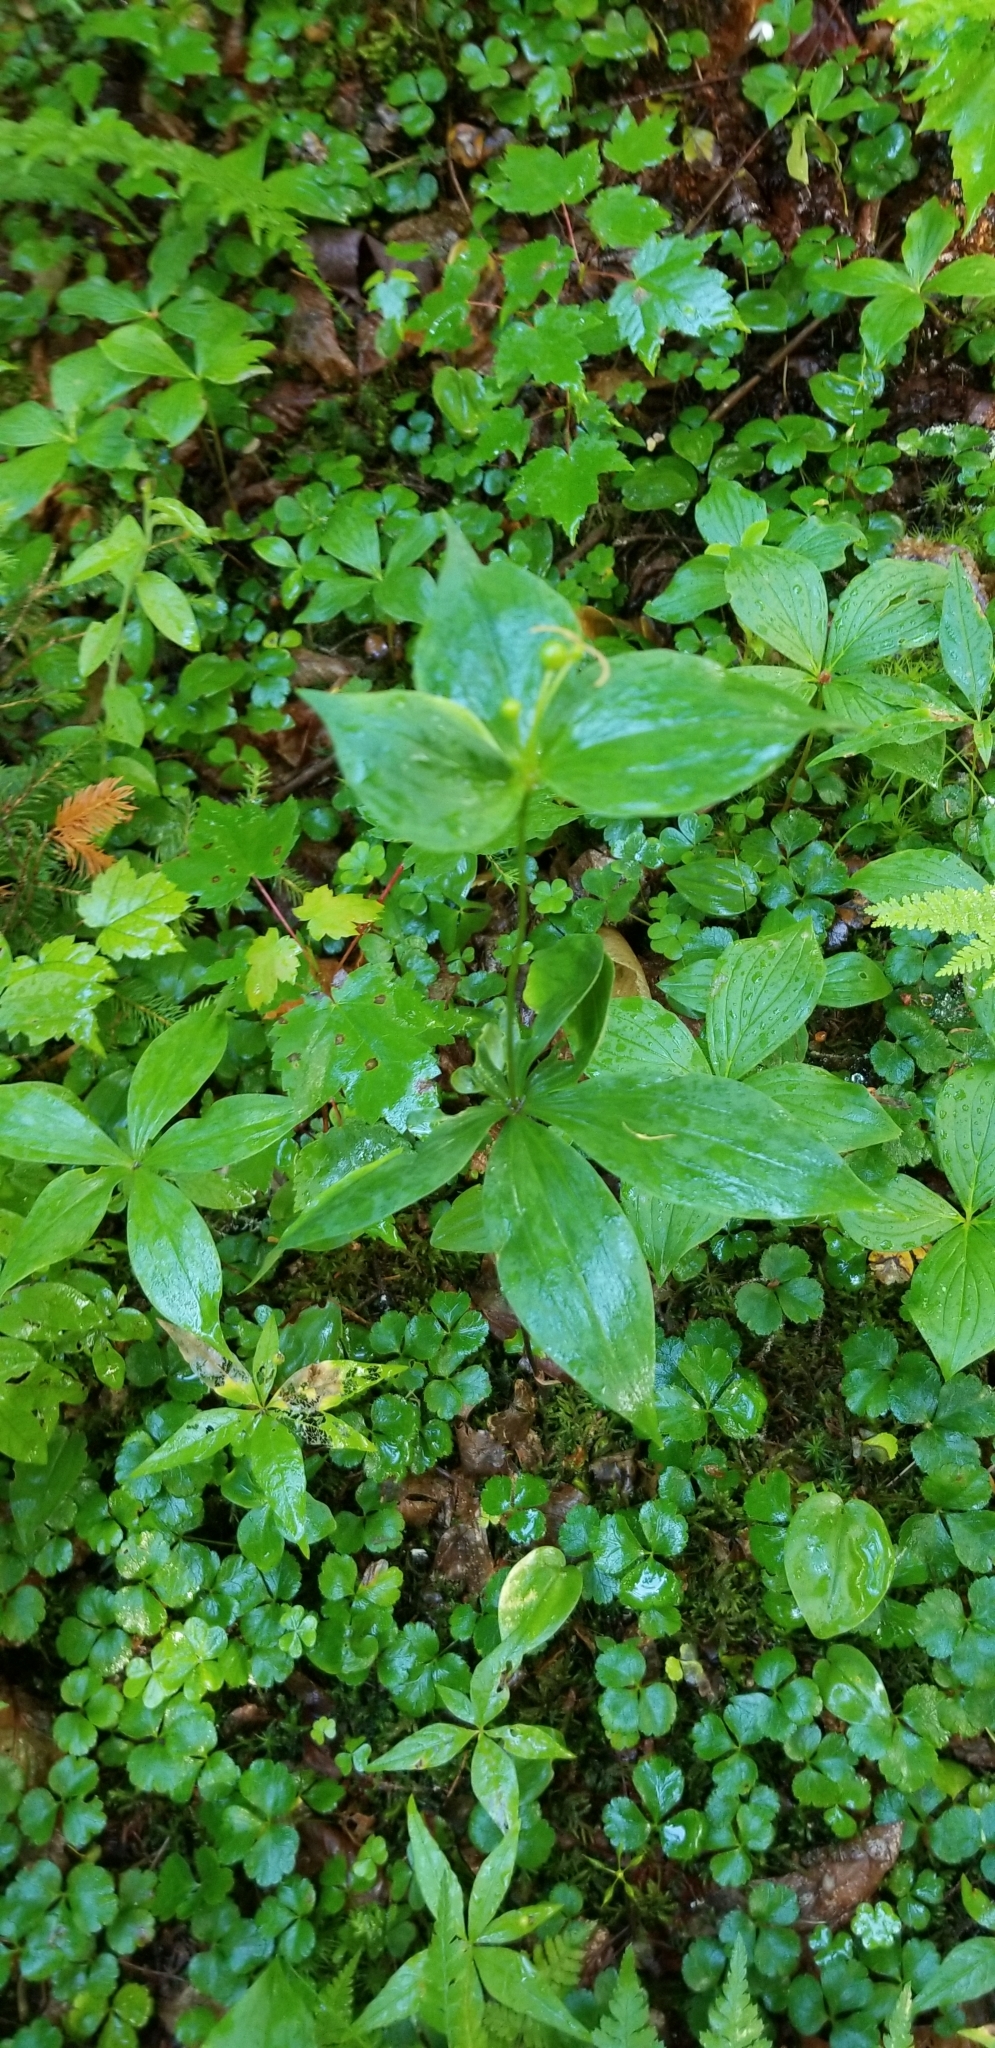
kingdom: Plantae
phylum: Tracheophyta
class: Liliopsida
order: Liliales
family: Liliaceae
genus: Medeola
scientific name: Medeola virginiana
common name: Indian cucumber-root
